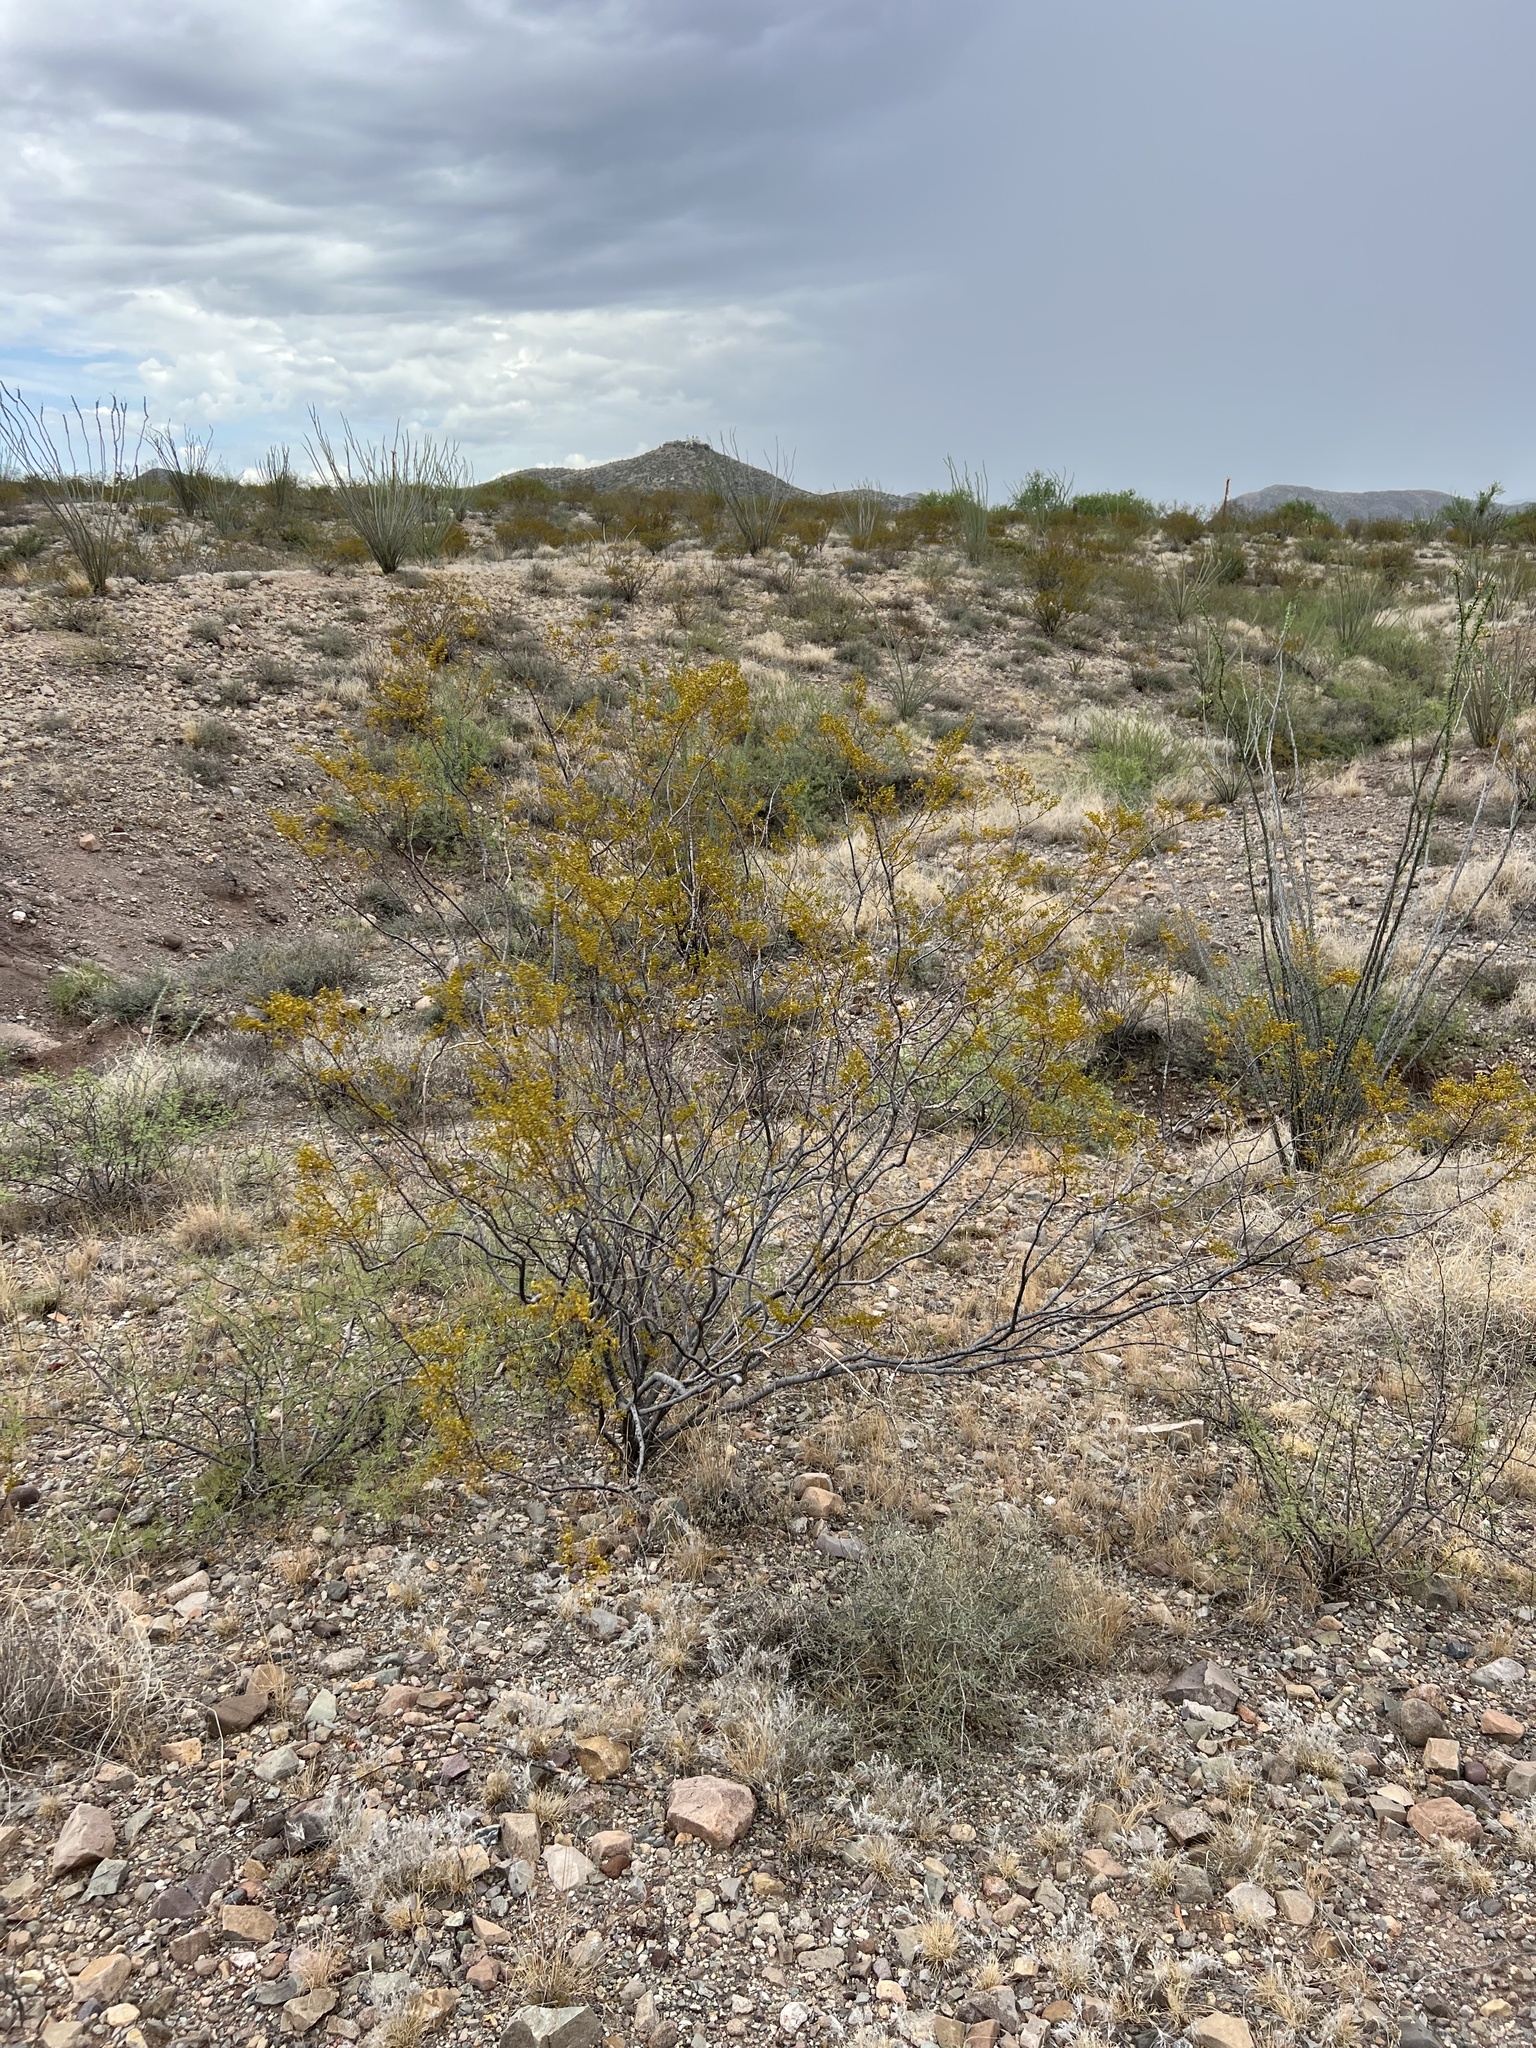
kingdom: Plantae
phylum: Tracheophyta
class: Magnoliopsida
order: Zygophyllales
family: Zygophyllaceae
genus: Larrea
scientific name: Larrea tridentata
